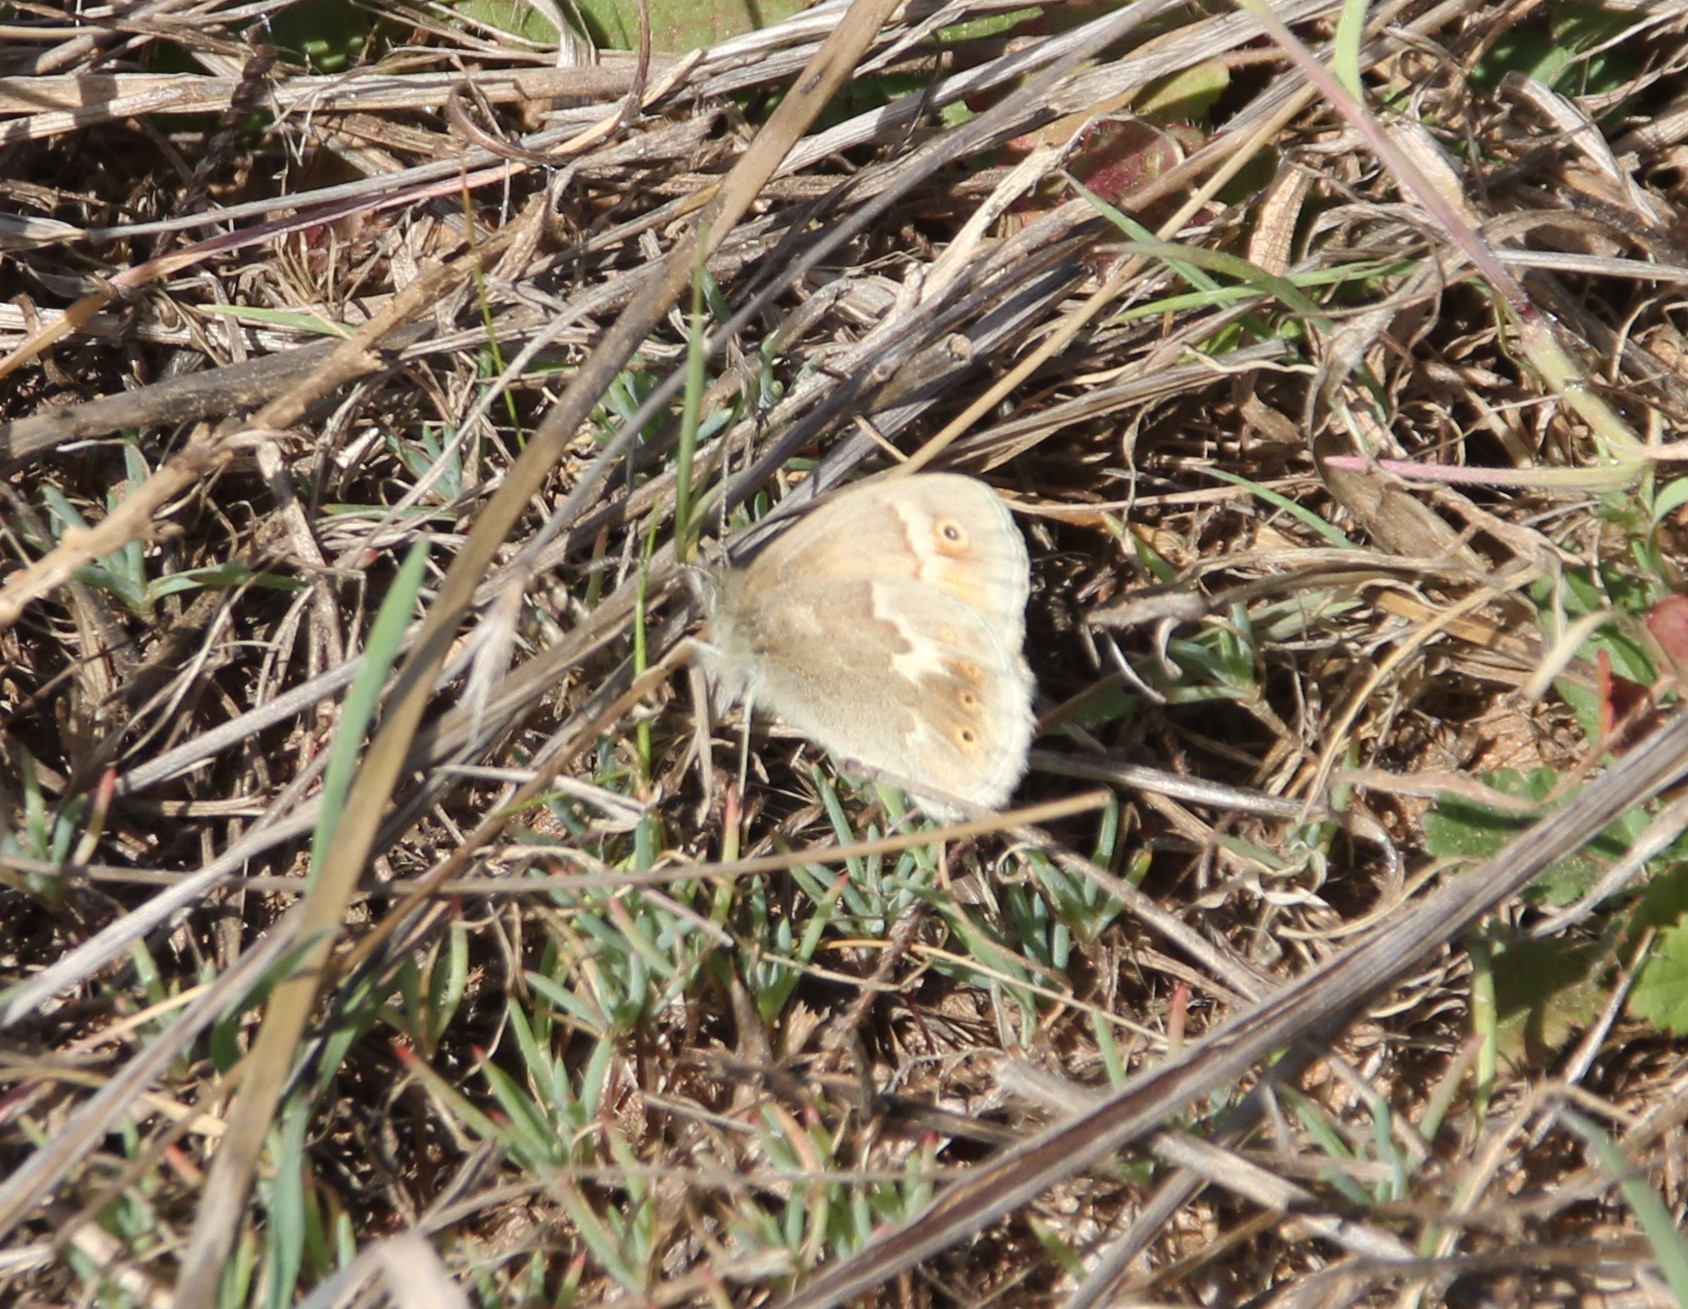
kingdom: Animalia
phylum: Arthropoda
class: Insecta
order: Lepidoptera
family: Nymphalidae
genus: Coenonympha
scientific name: Coenonympha california
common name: Common ringlet
